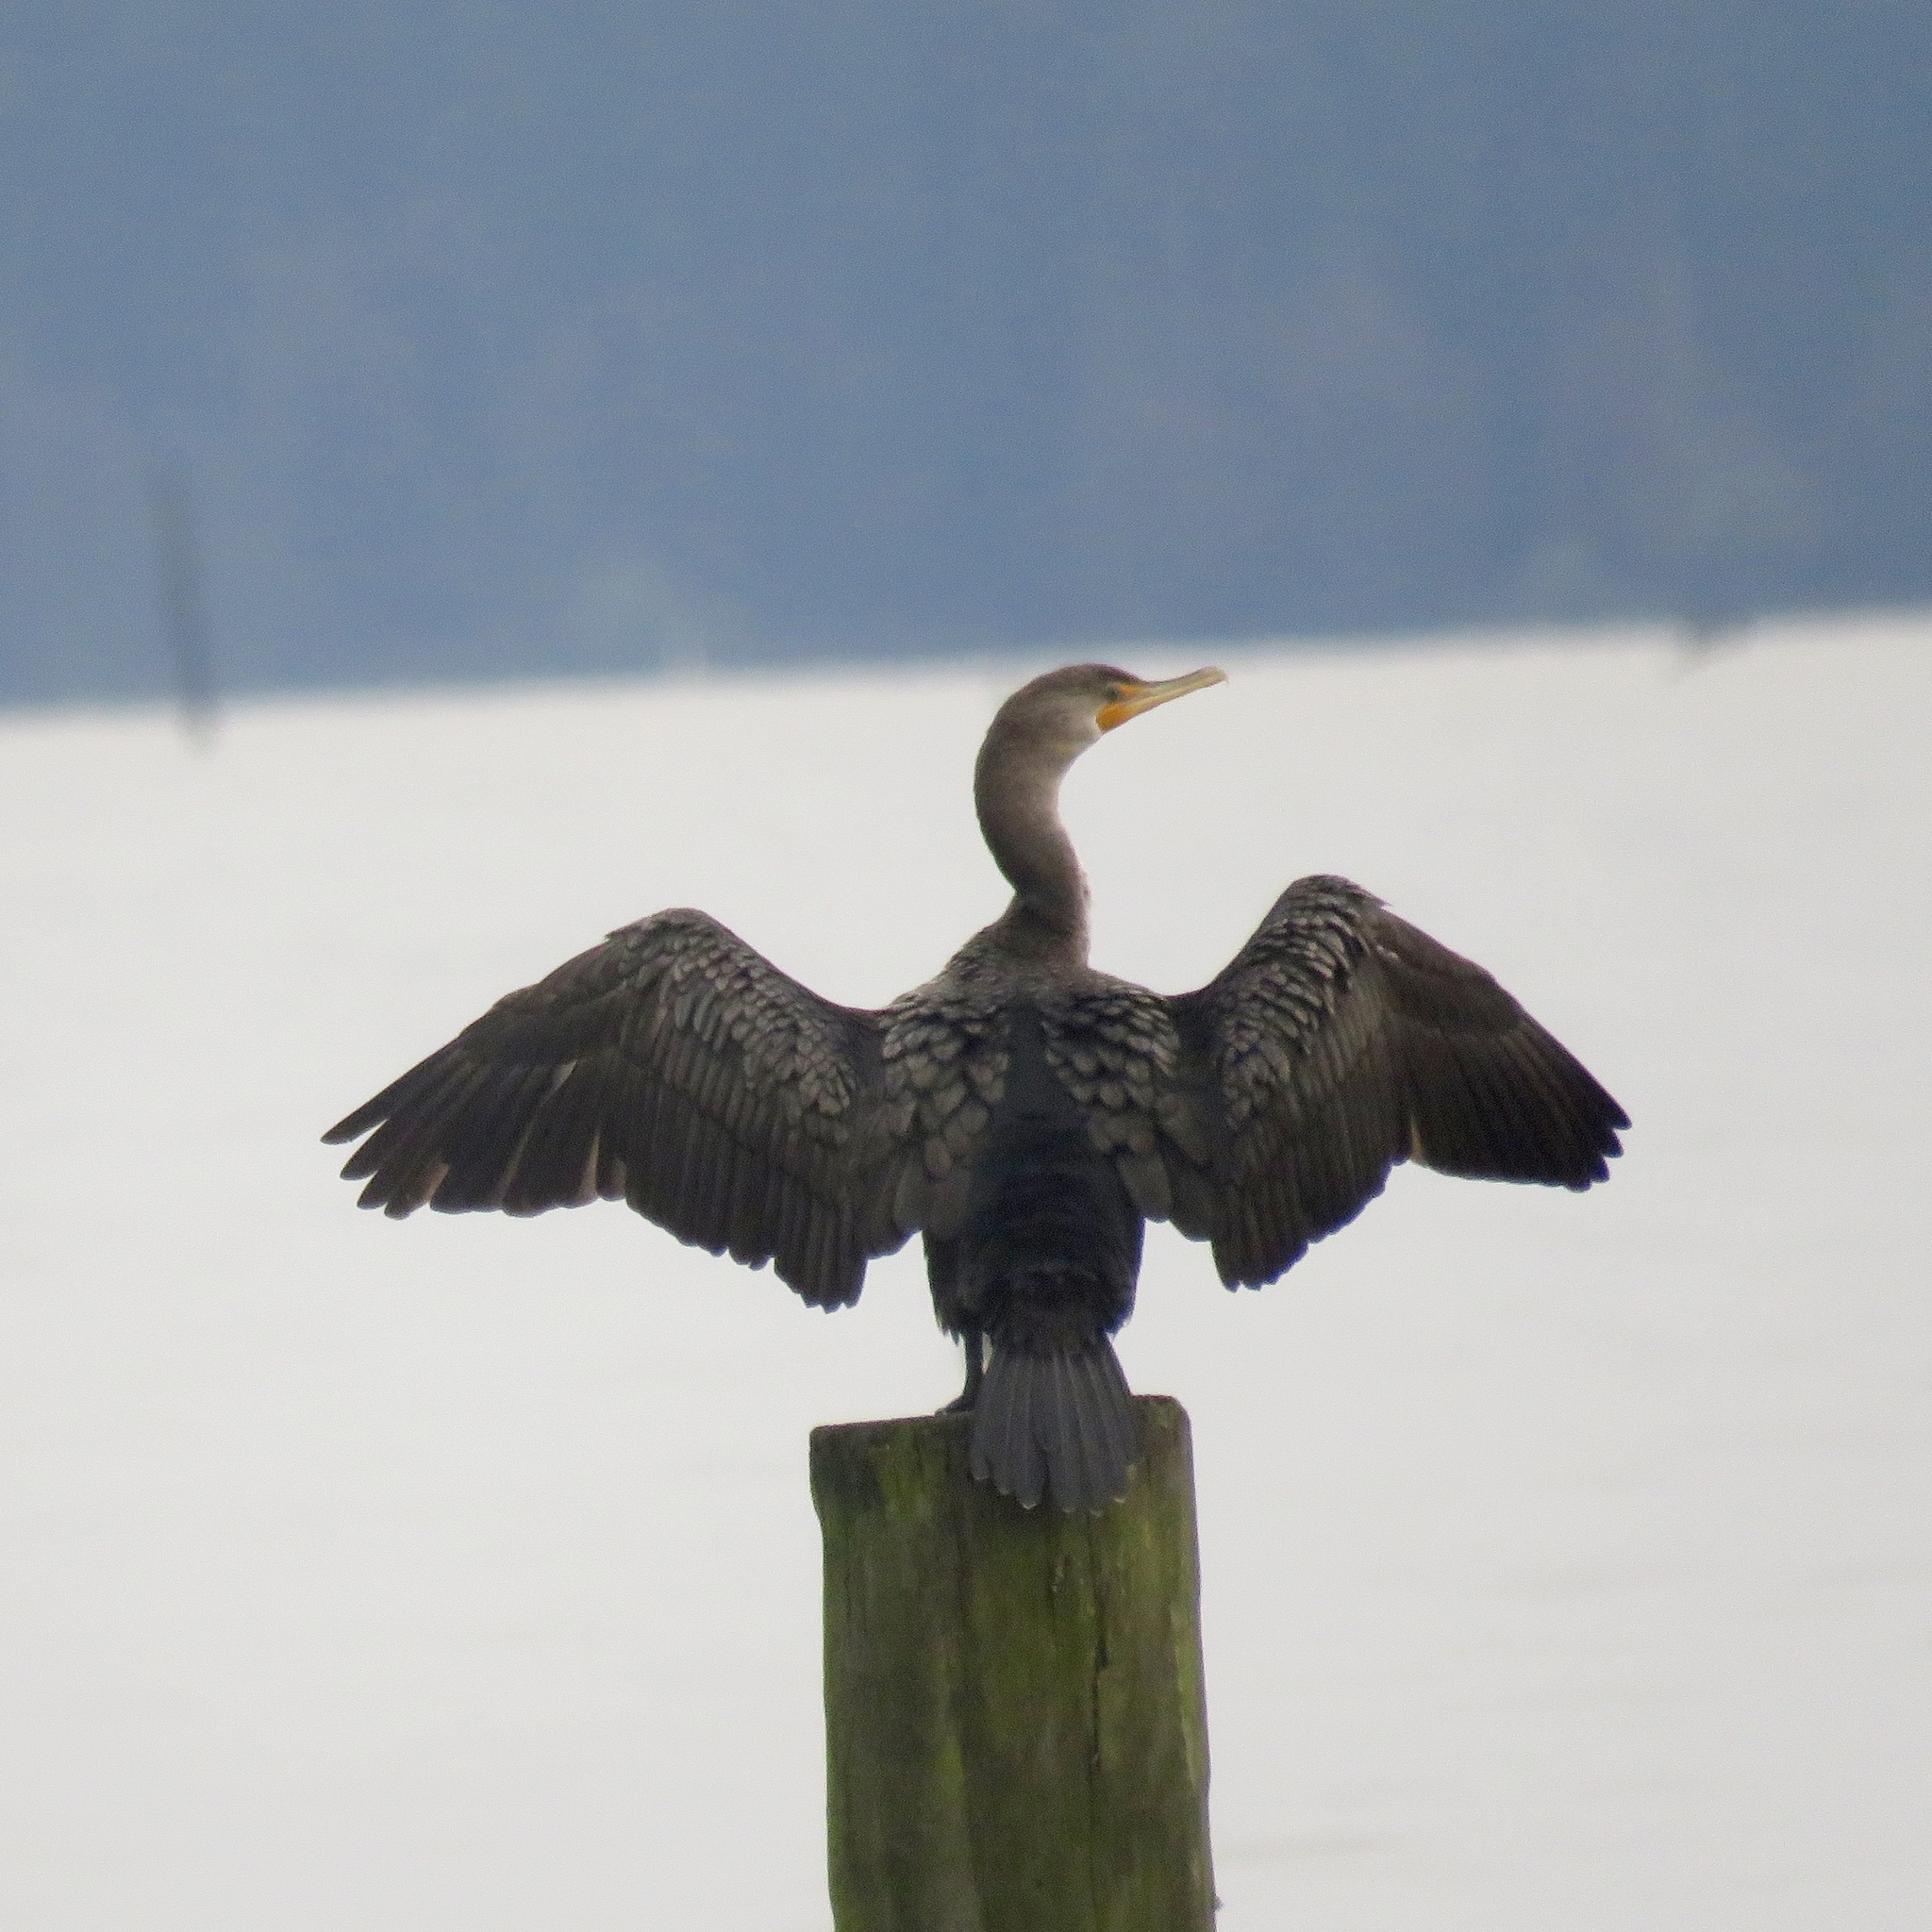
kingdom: Animalia
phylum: Chordata
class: Aves
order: Suliformes
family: Phalacrocoracidae
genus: Phalacrocorax
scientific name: Phalacrocorax auritus
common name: Double-crested cormorant
